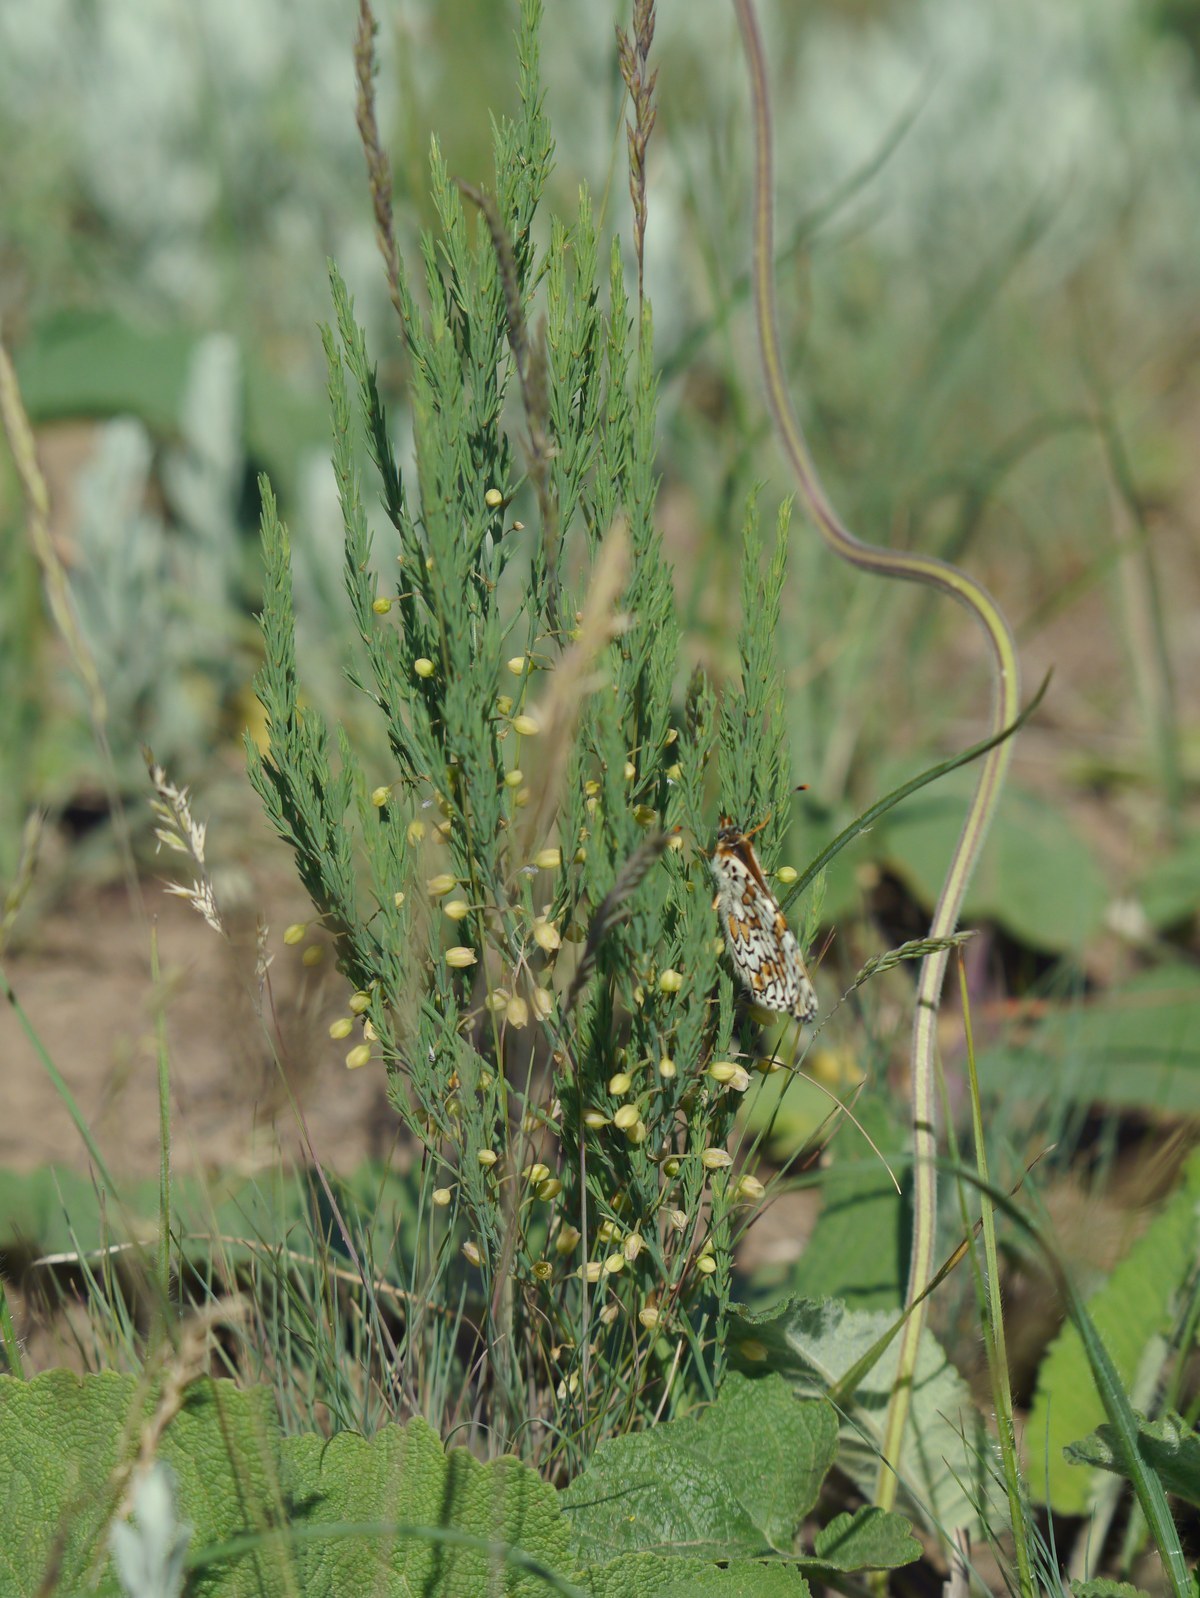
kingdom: Plantae
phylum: Tracheophyta
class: Liliopsida
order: Asparagales
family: Asparagaceae
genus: Asparagus
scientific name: Asparagus officinalis
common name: Garden asparagus
